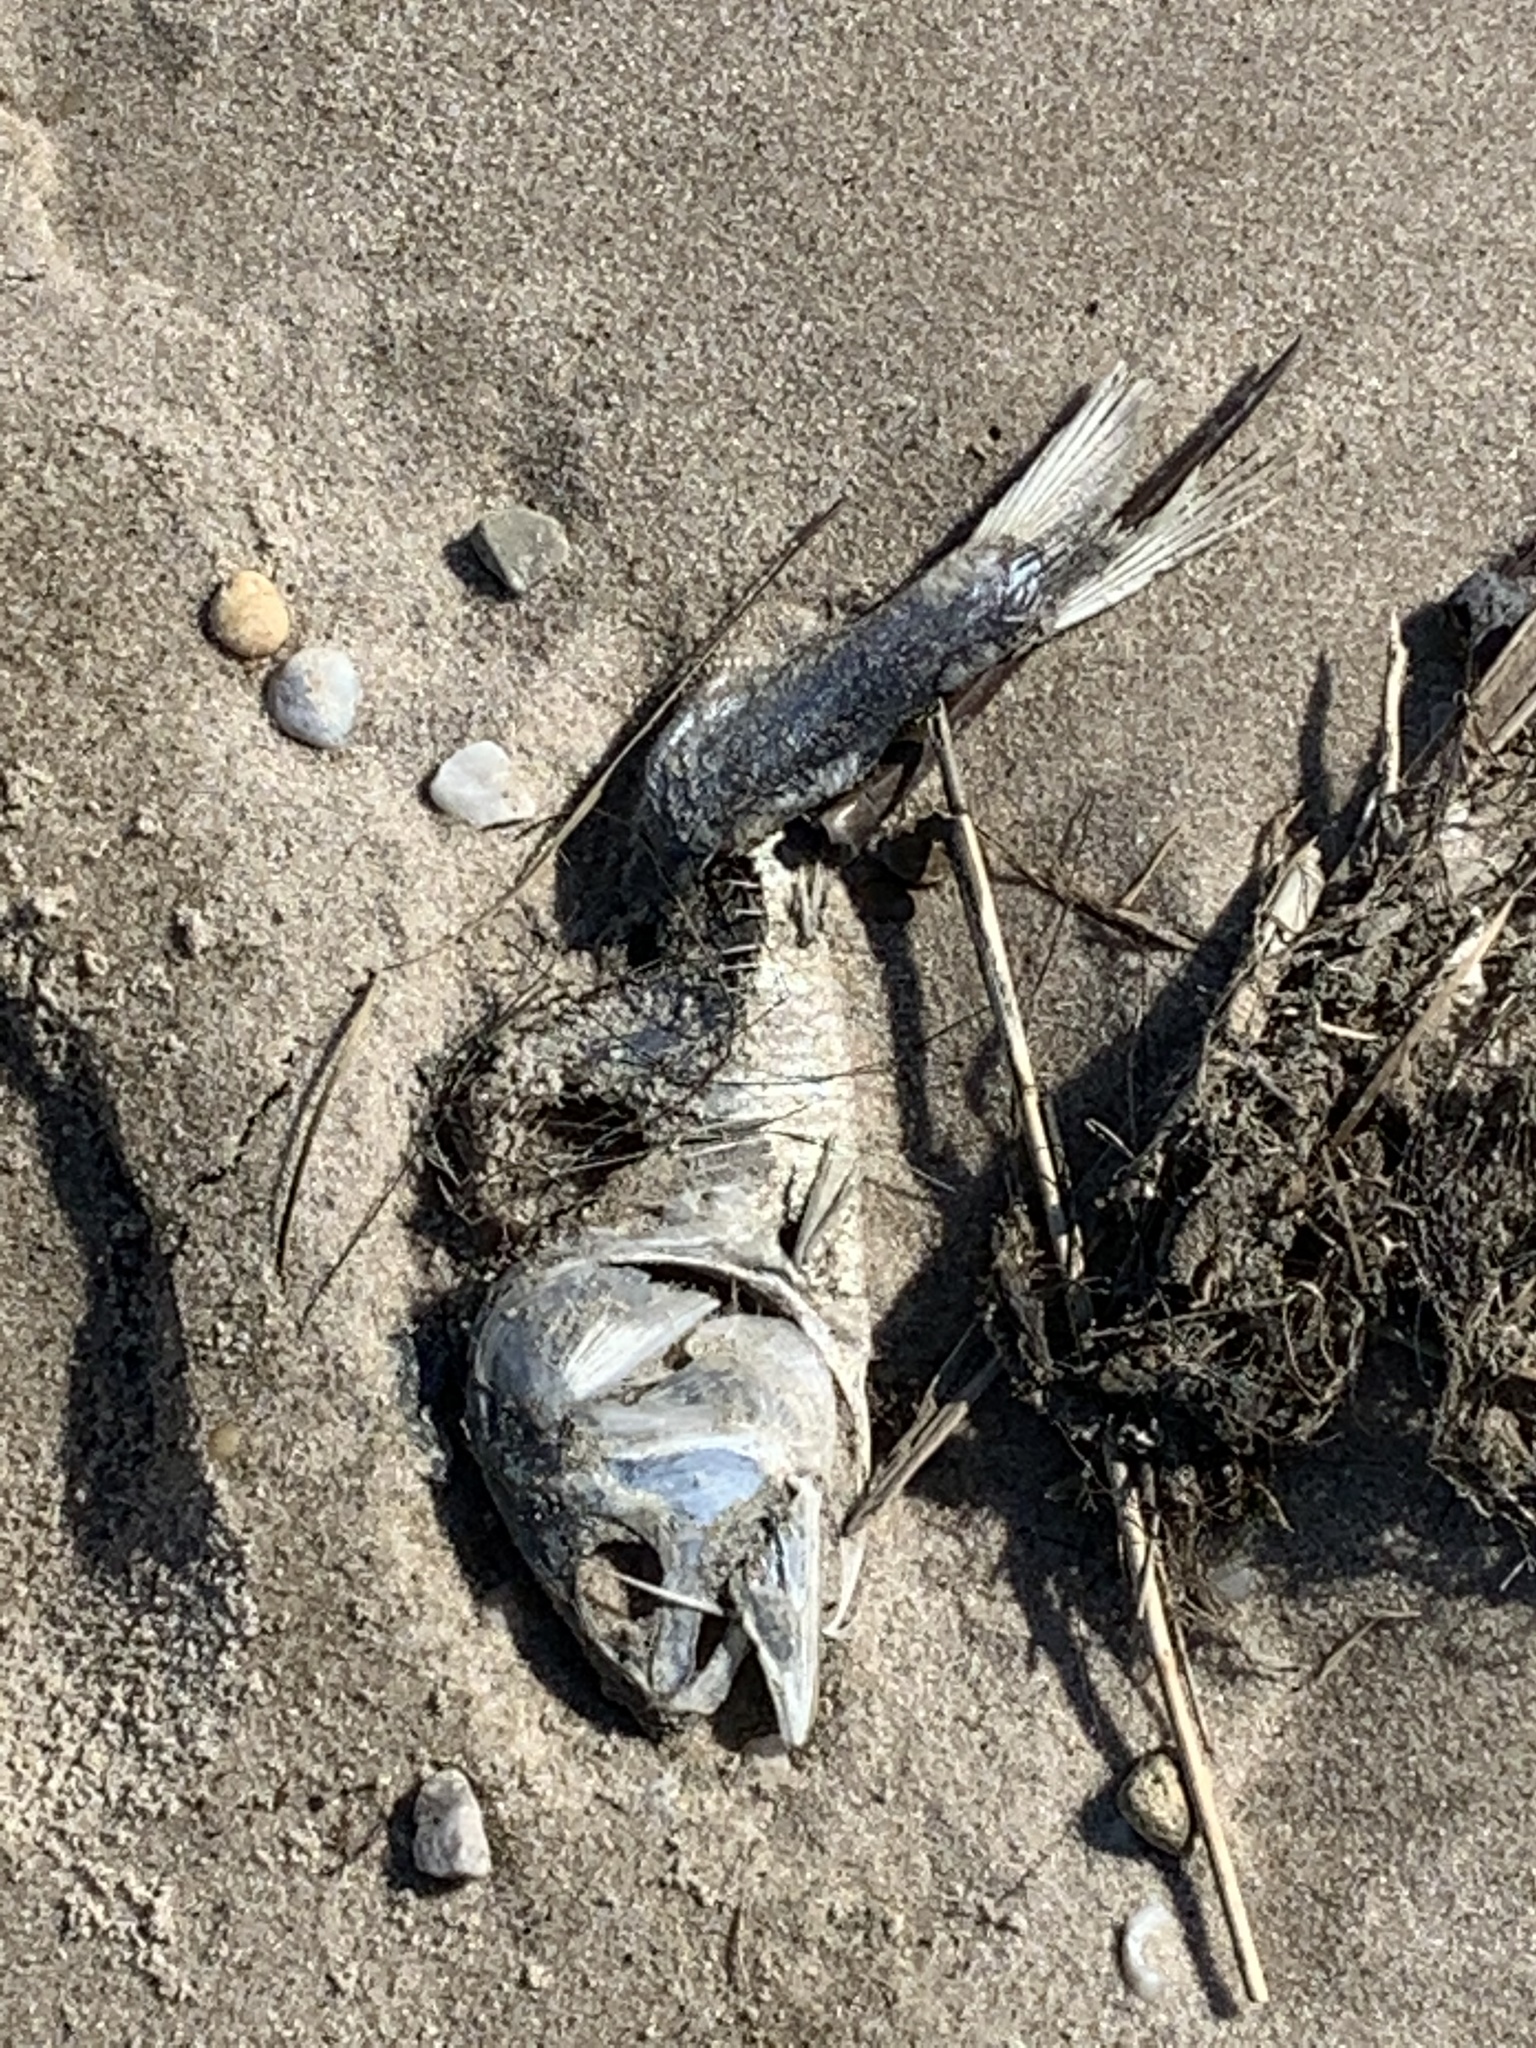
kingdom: Animalia
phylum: Chordata
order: Clupeiformes
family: Clupeidae
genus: Brevoortia
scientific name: Brevoortia tyrannus
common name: Atlantic menhaden
